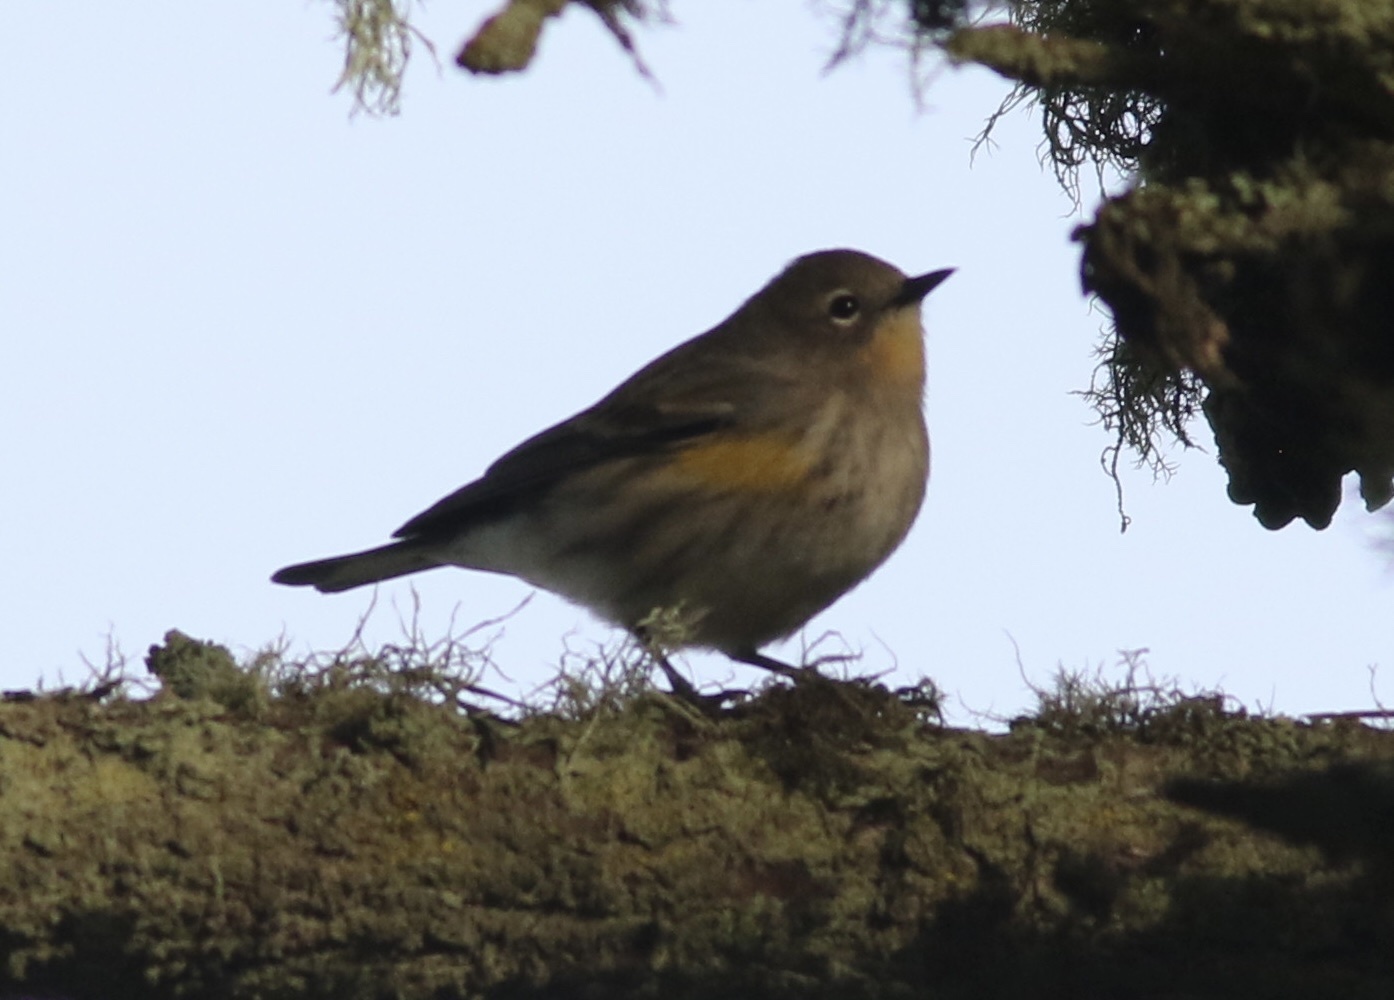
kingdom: Animalia
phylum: Chordata
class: Aves
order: Passeriformes
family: Parulidae
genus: Setophaga
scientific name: Setophaga coronata
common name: Myrtle warbler
